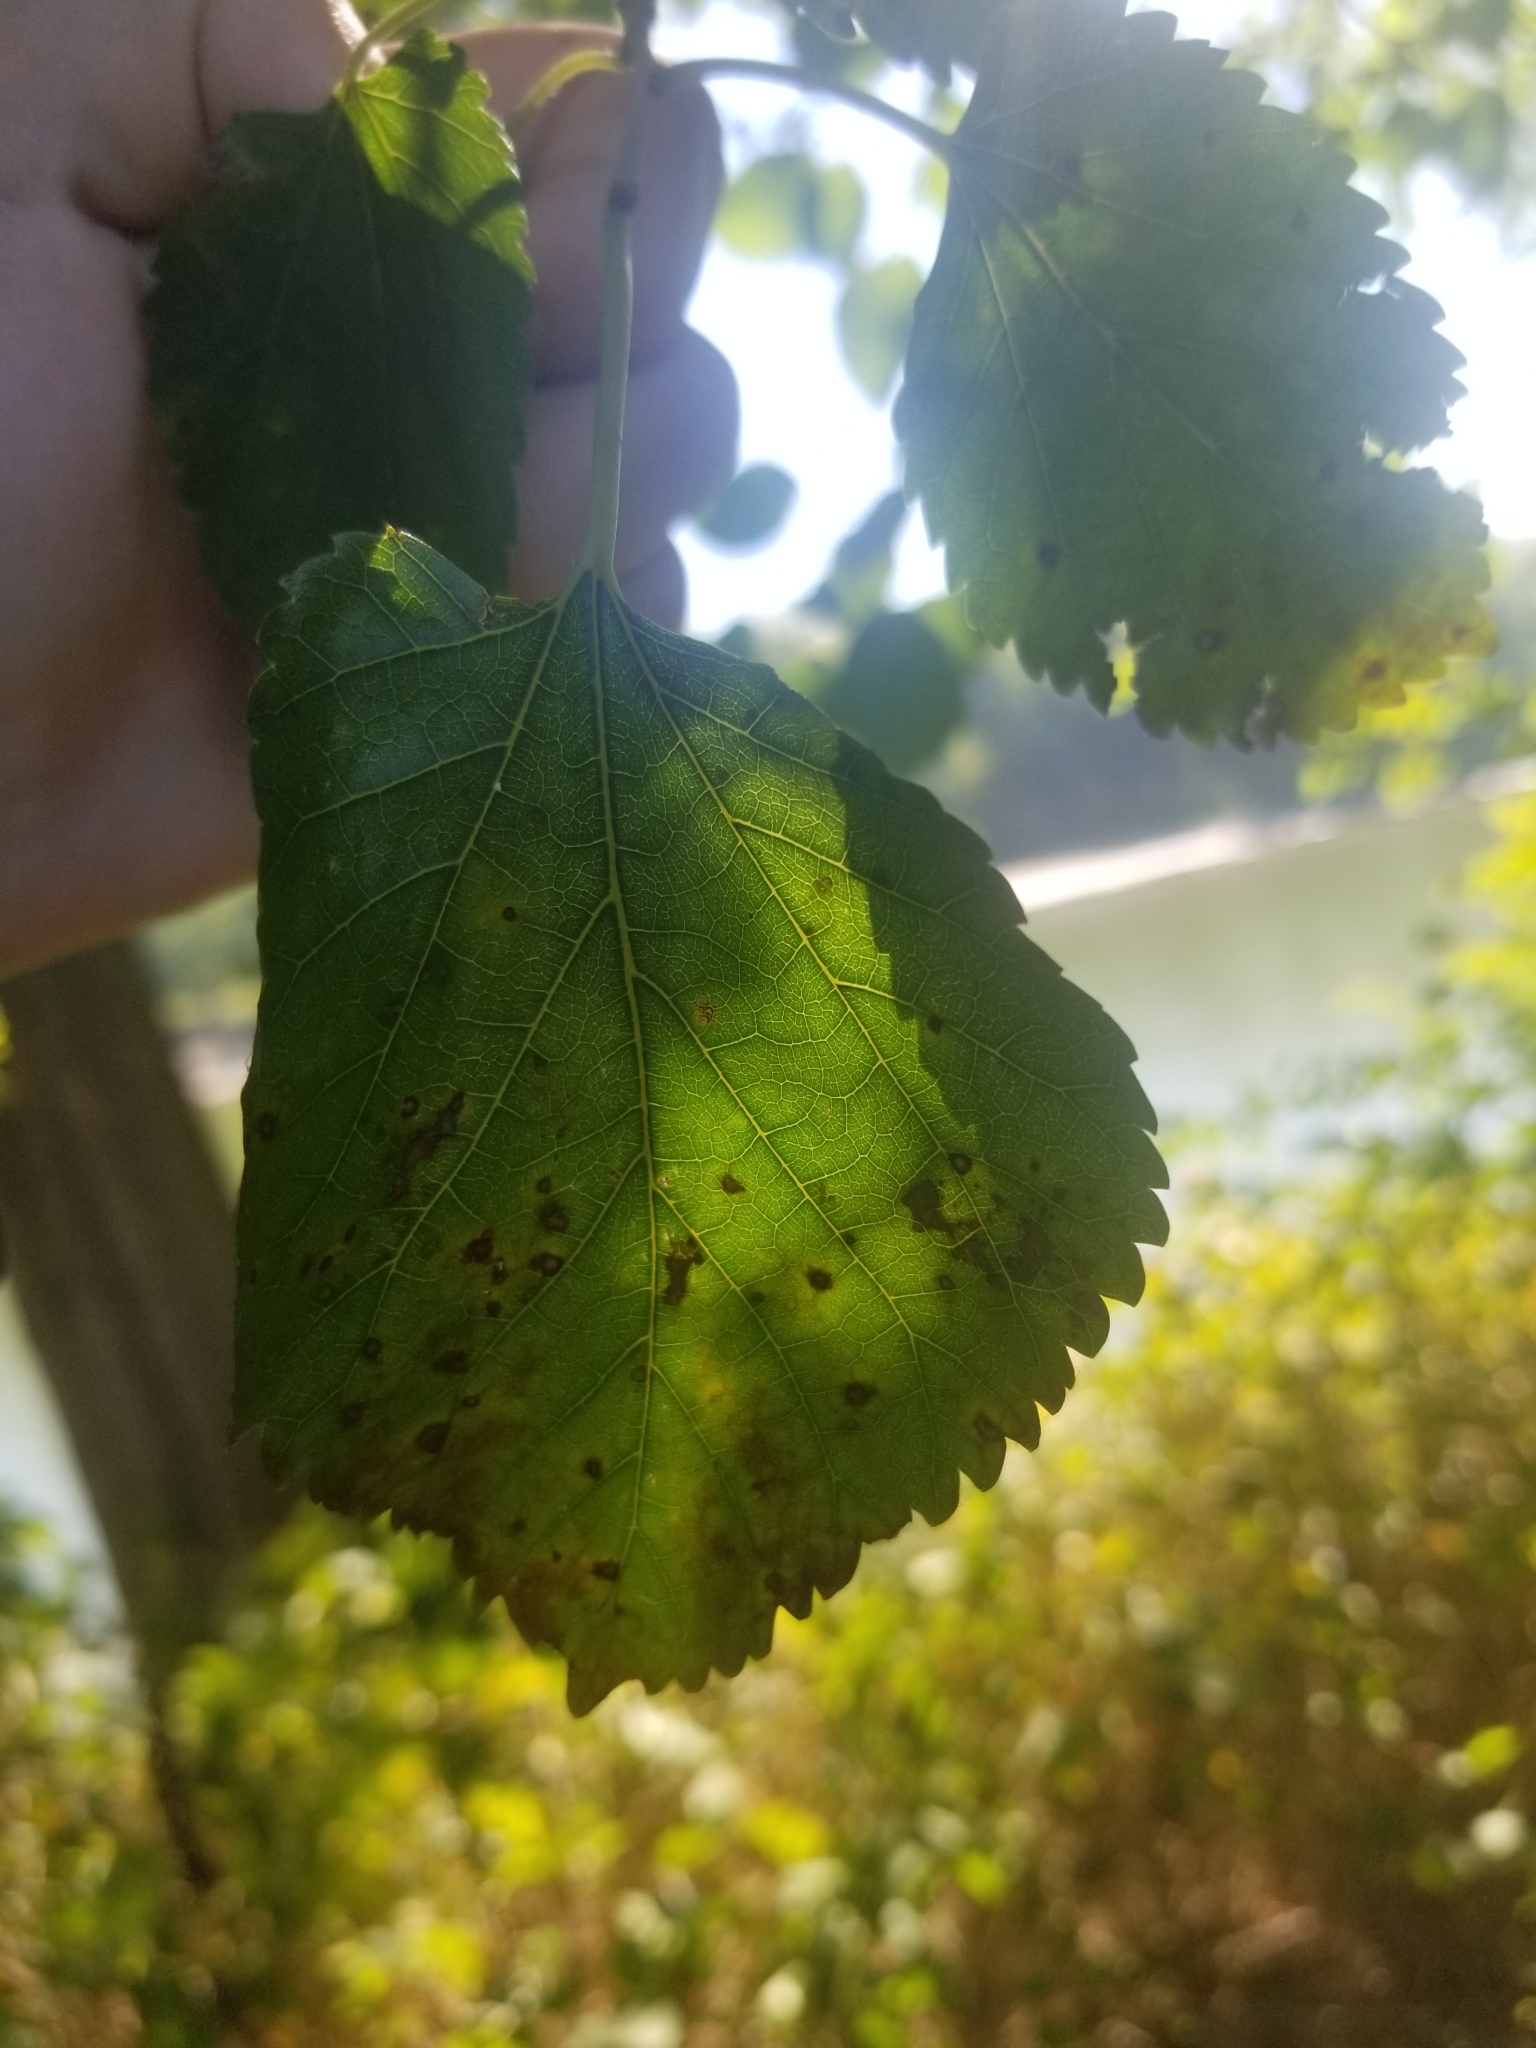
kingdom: Fungi
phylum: Ascomycota
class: Dothideomycetes
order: Mycosphaerellales
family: Mycosphaerellaceae
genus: Cercospora
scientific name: Cercospora moricola
